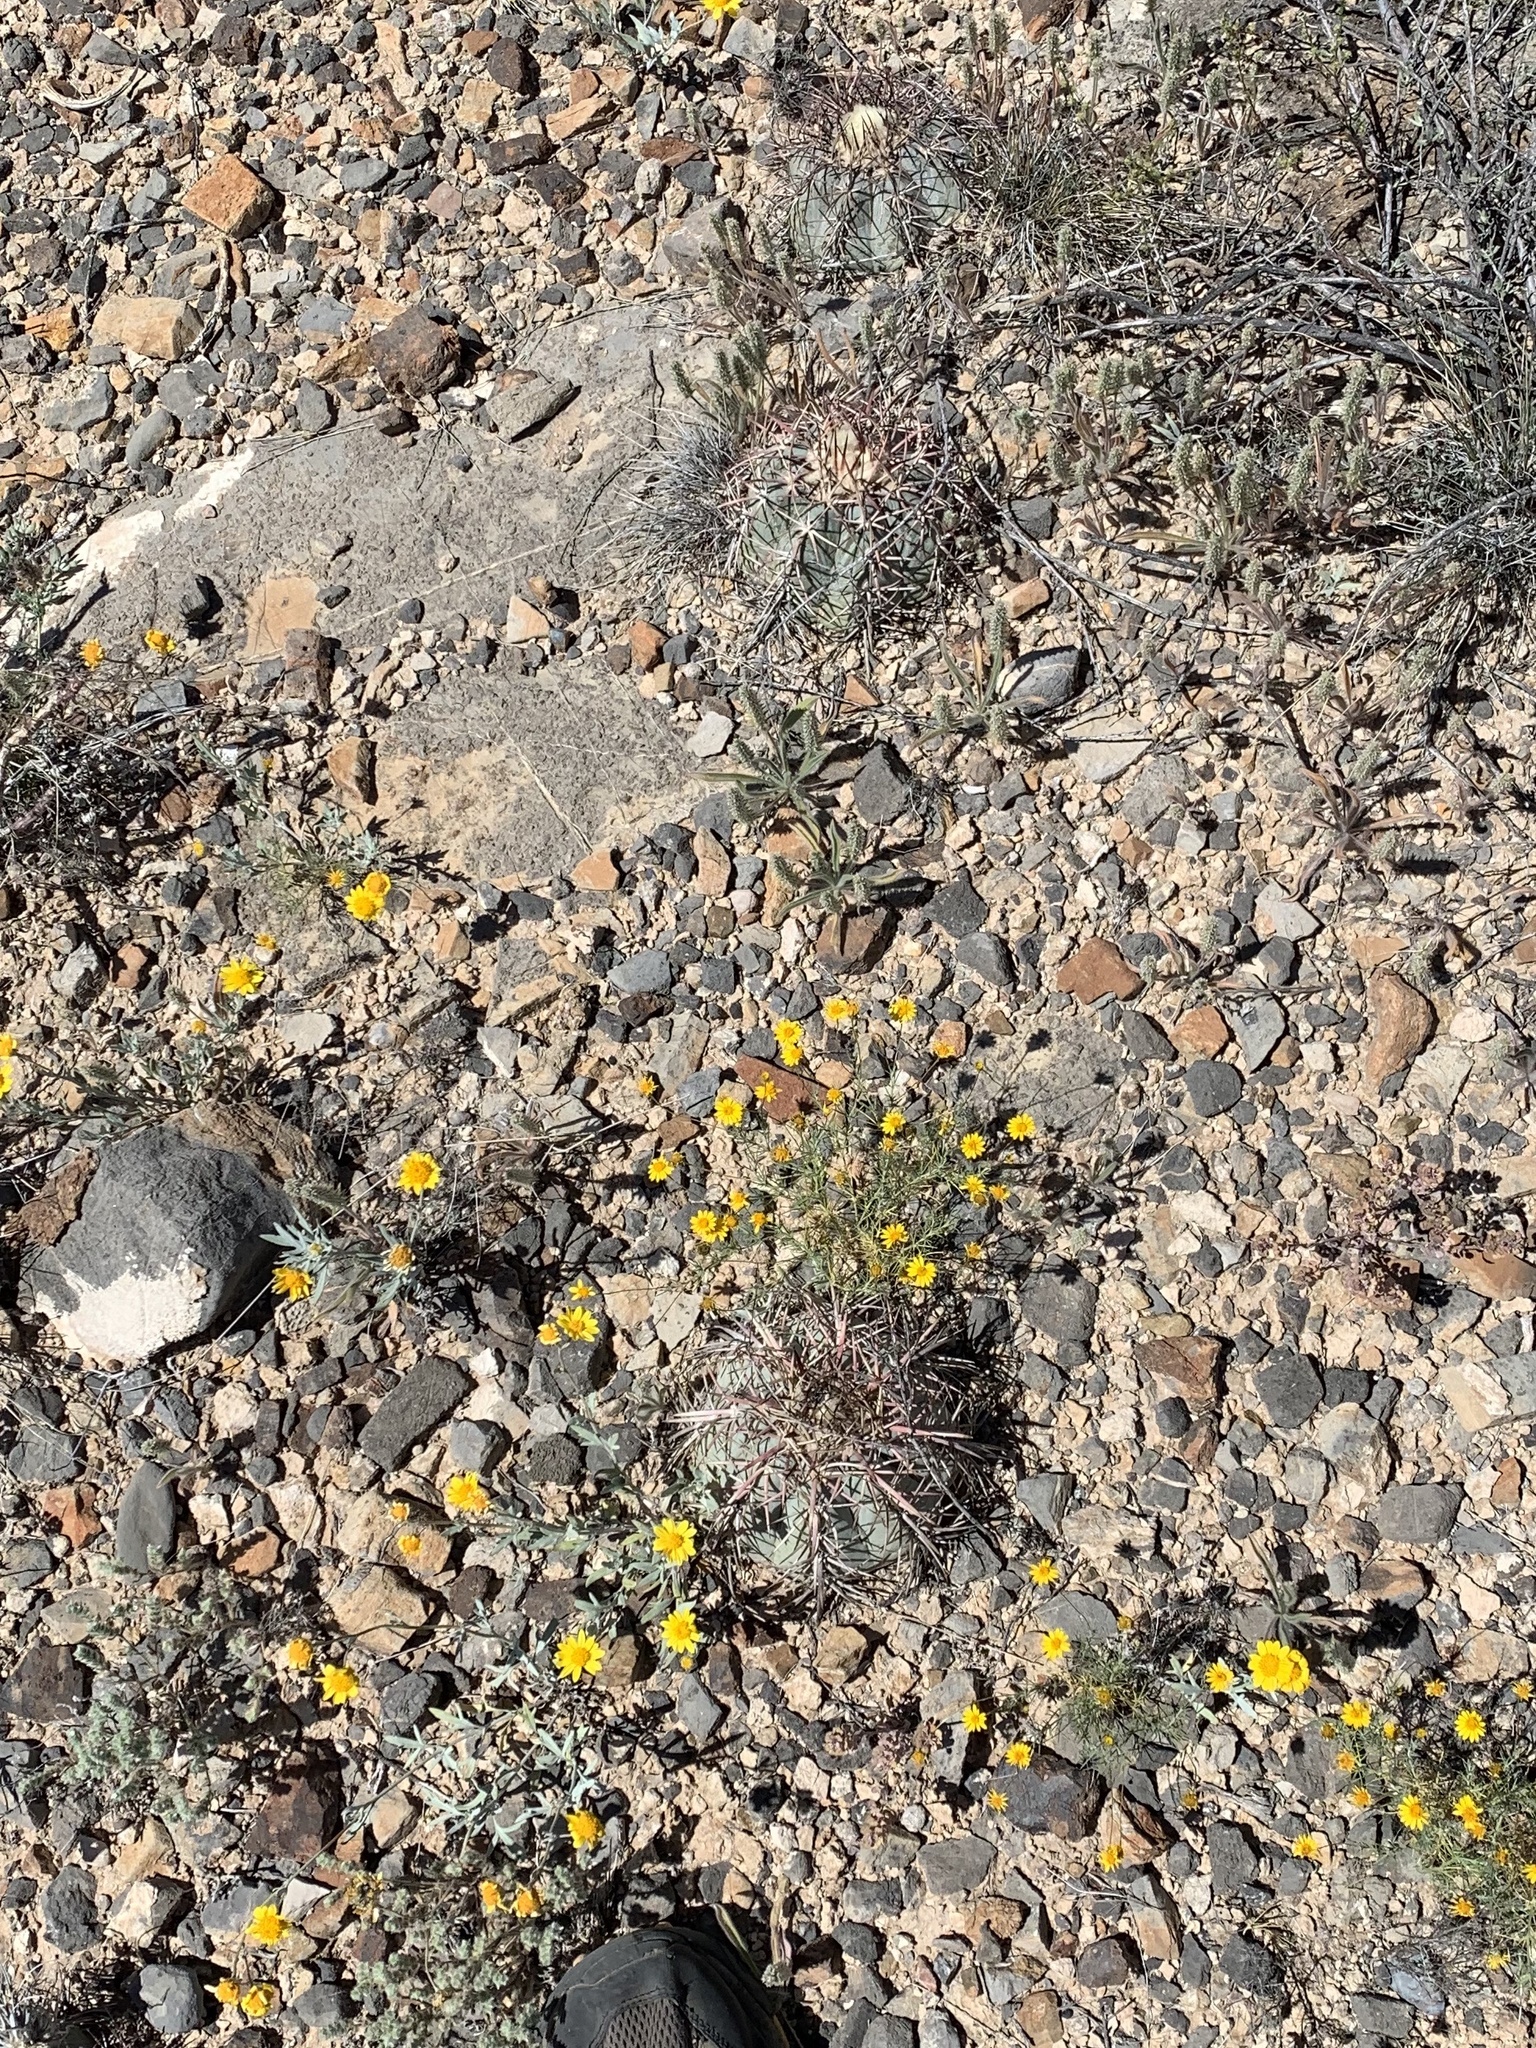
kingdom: Plantae
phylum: Tracheophyta
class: Magnoliopsida
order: Caryophyllales
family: Cactaceae
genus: Echinocactus
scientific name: Echinocactus horizonthalonius
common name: Devilshead
